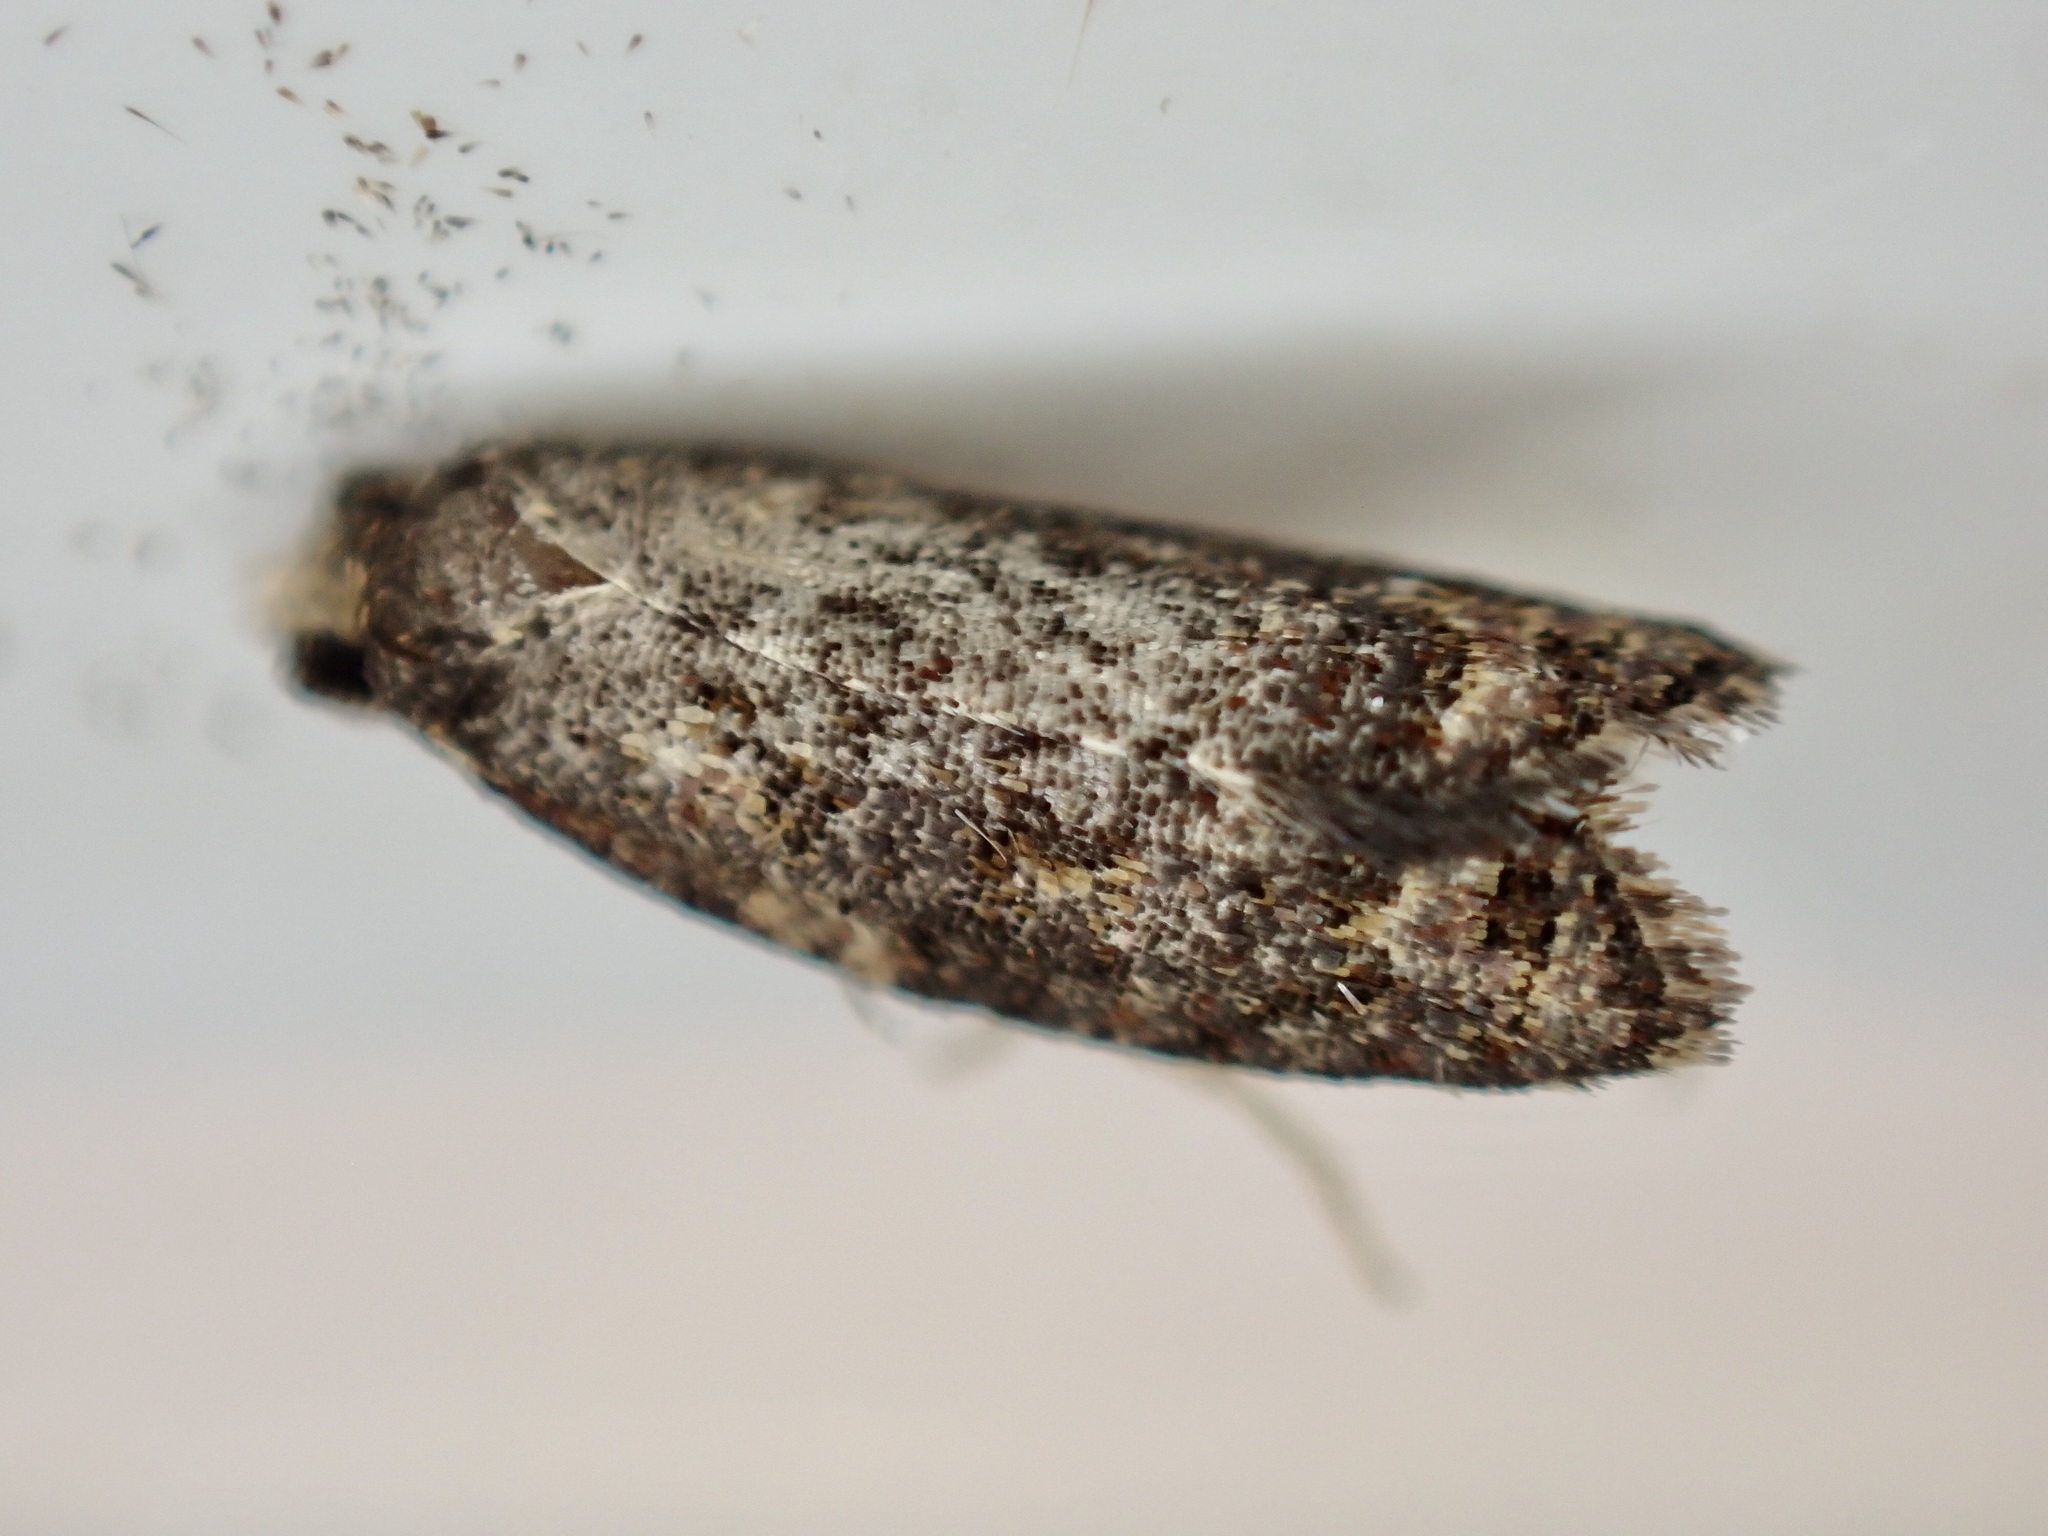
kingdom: Animalia
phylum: Arthropoda
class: Insecta
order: Lepidoptera
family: Tortricidae
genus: Capua
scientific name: Capua intractana
